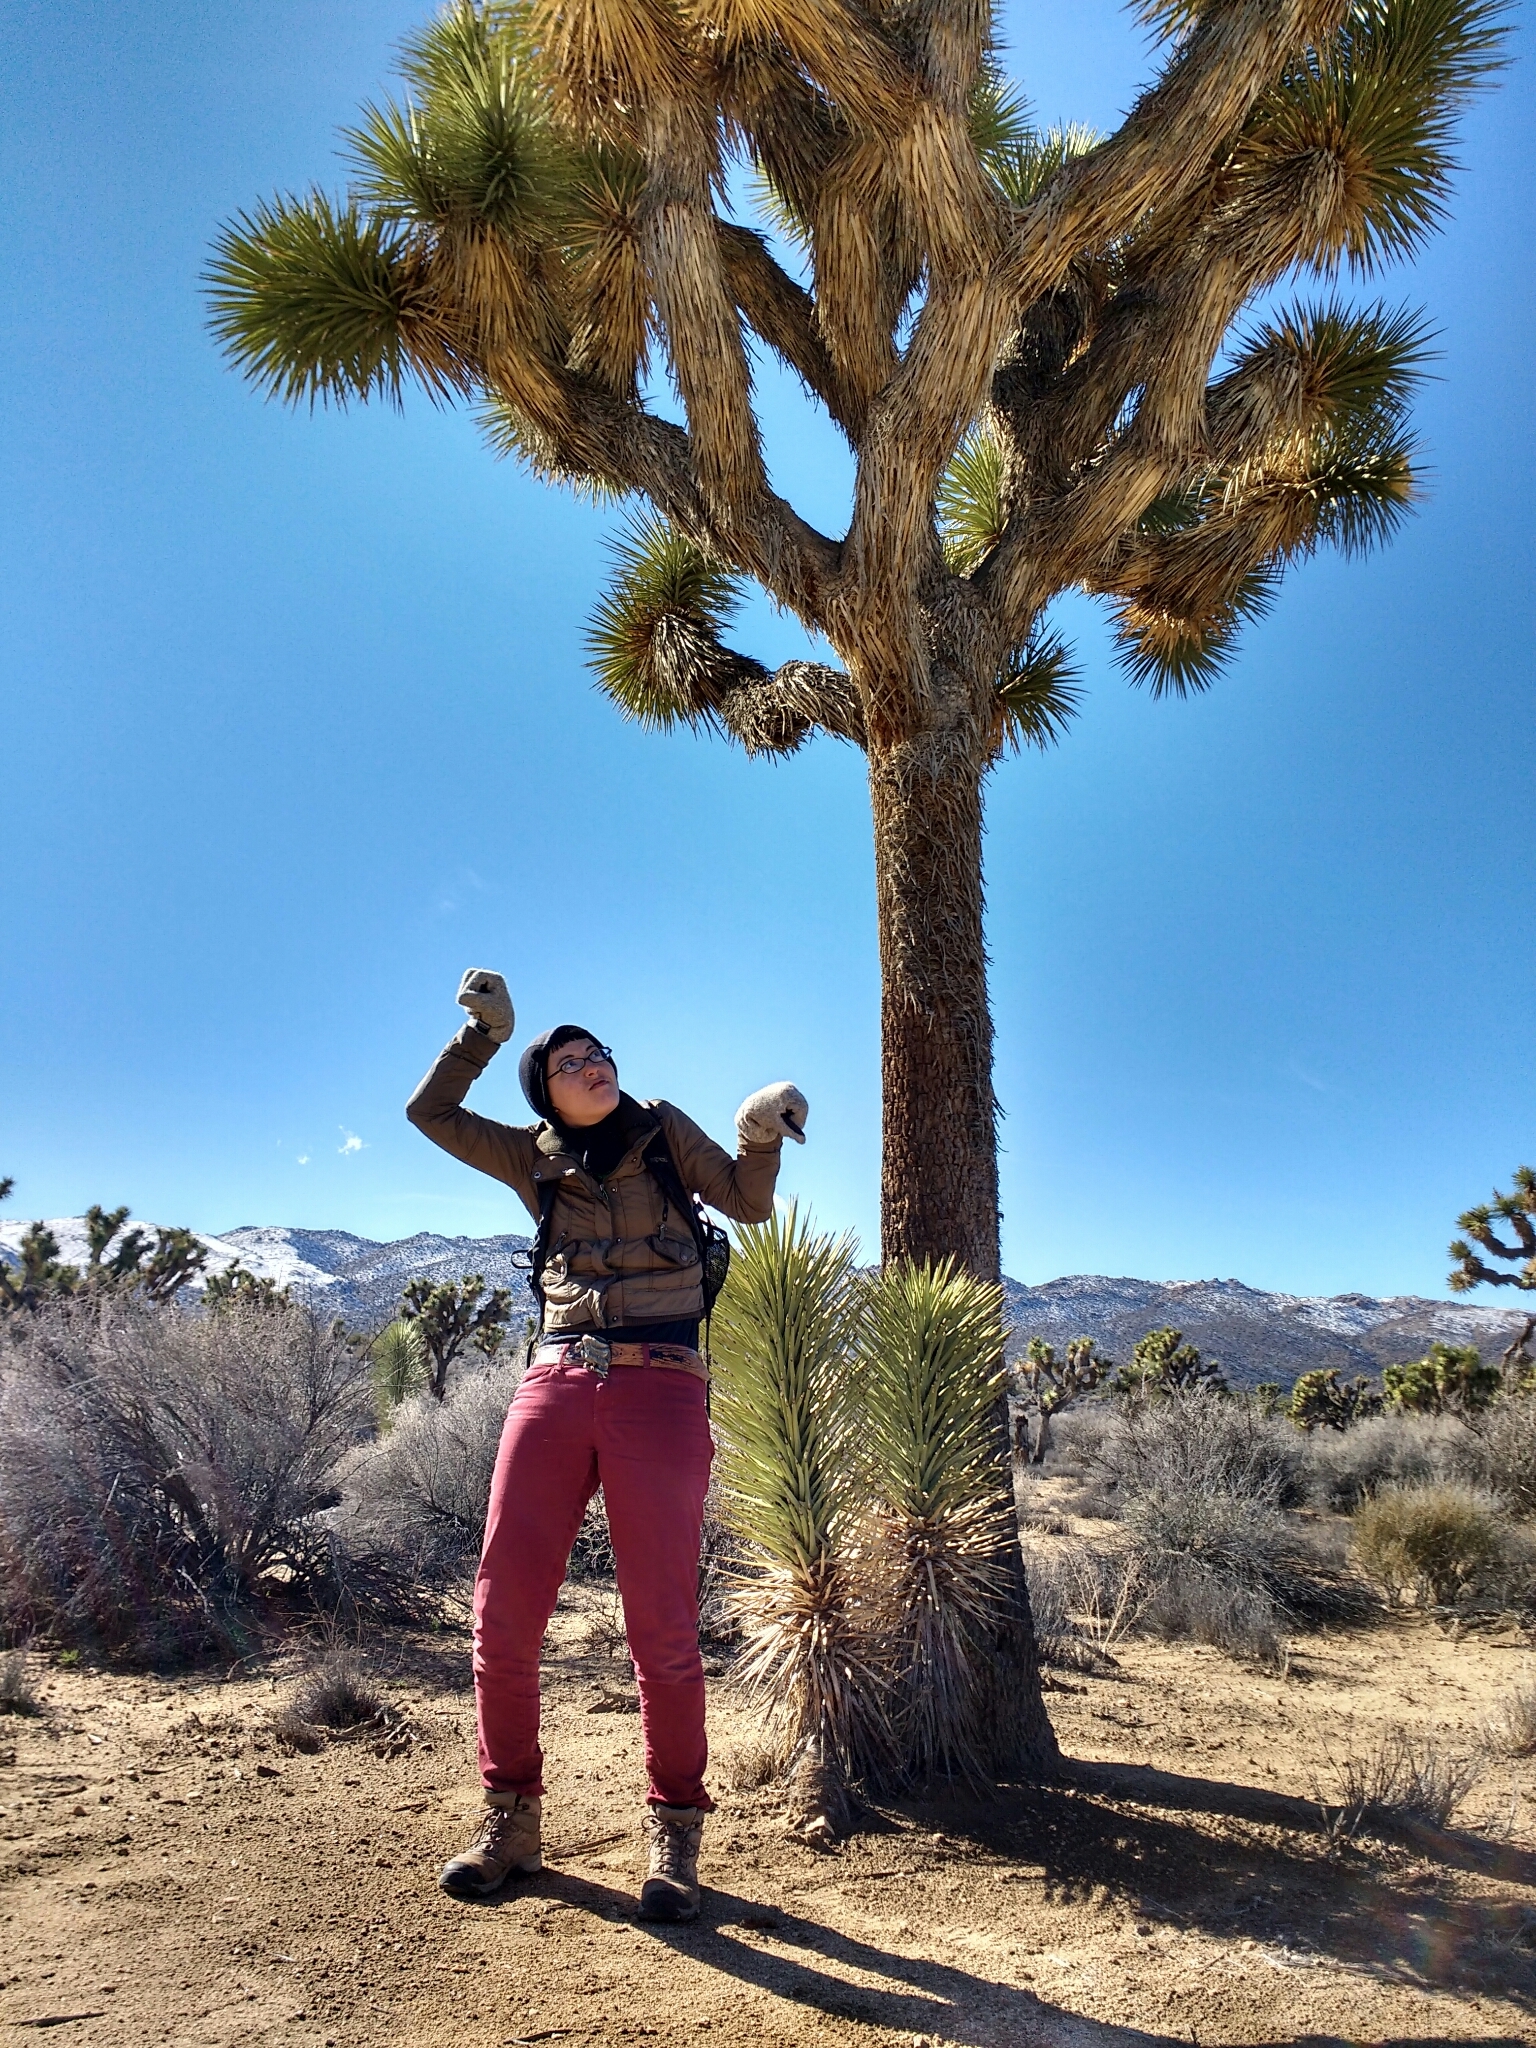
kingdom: Plantae
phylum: Tracheophyta
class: Liliopsida
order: Asparagales
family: Asparagaceae
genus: Yucca
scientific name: Yucca brevifolia
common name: Joshua tree
